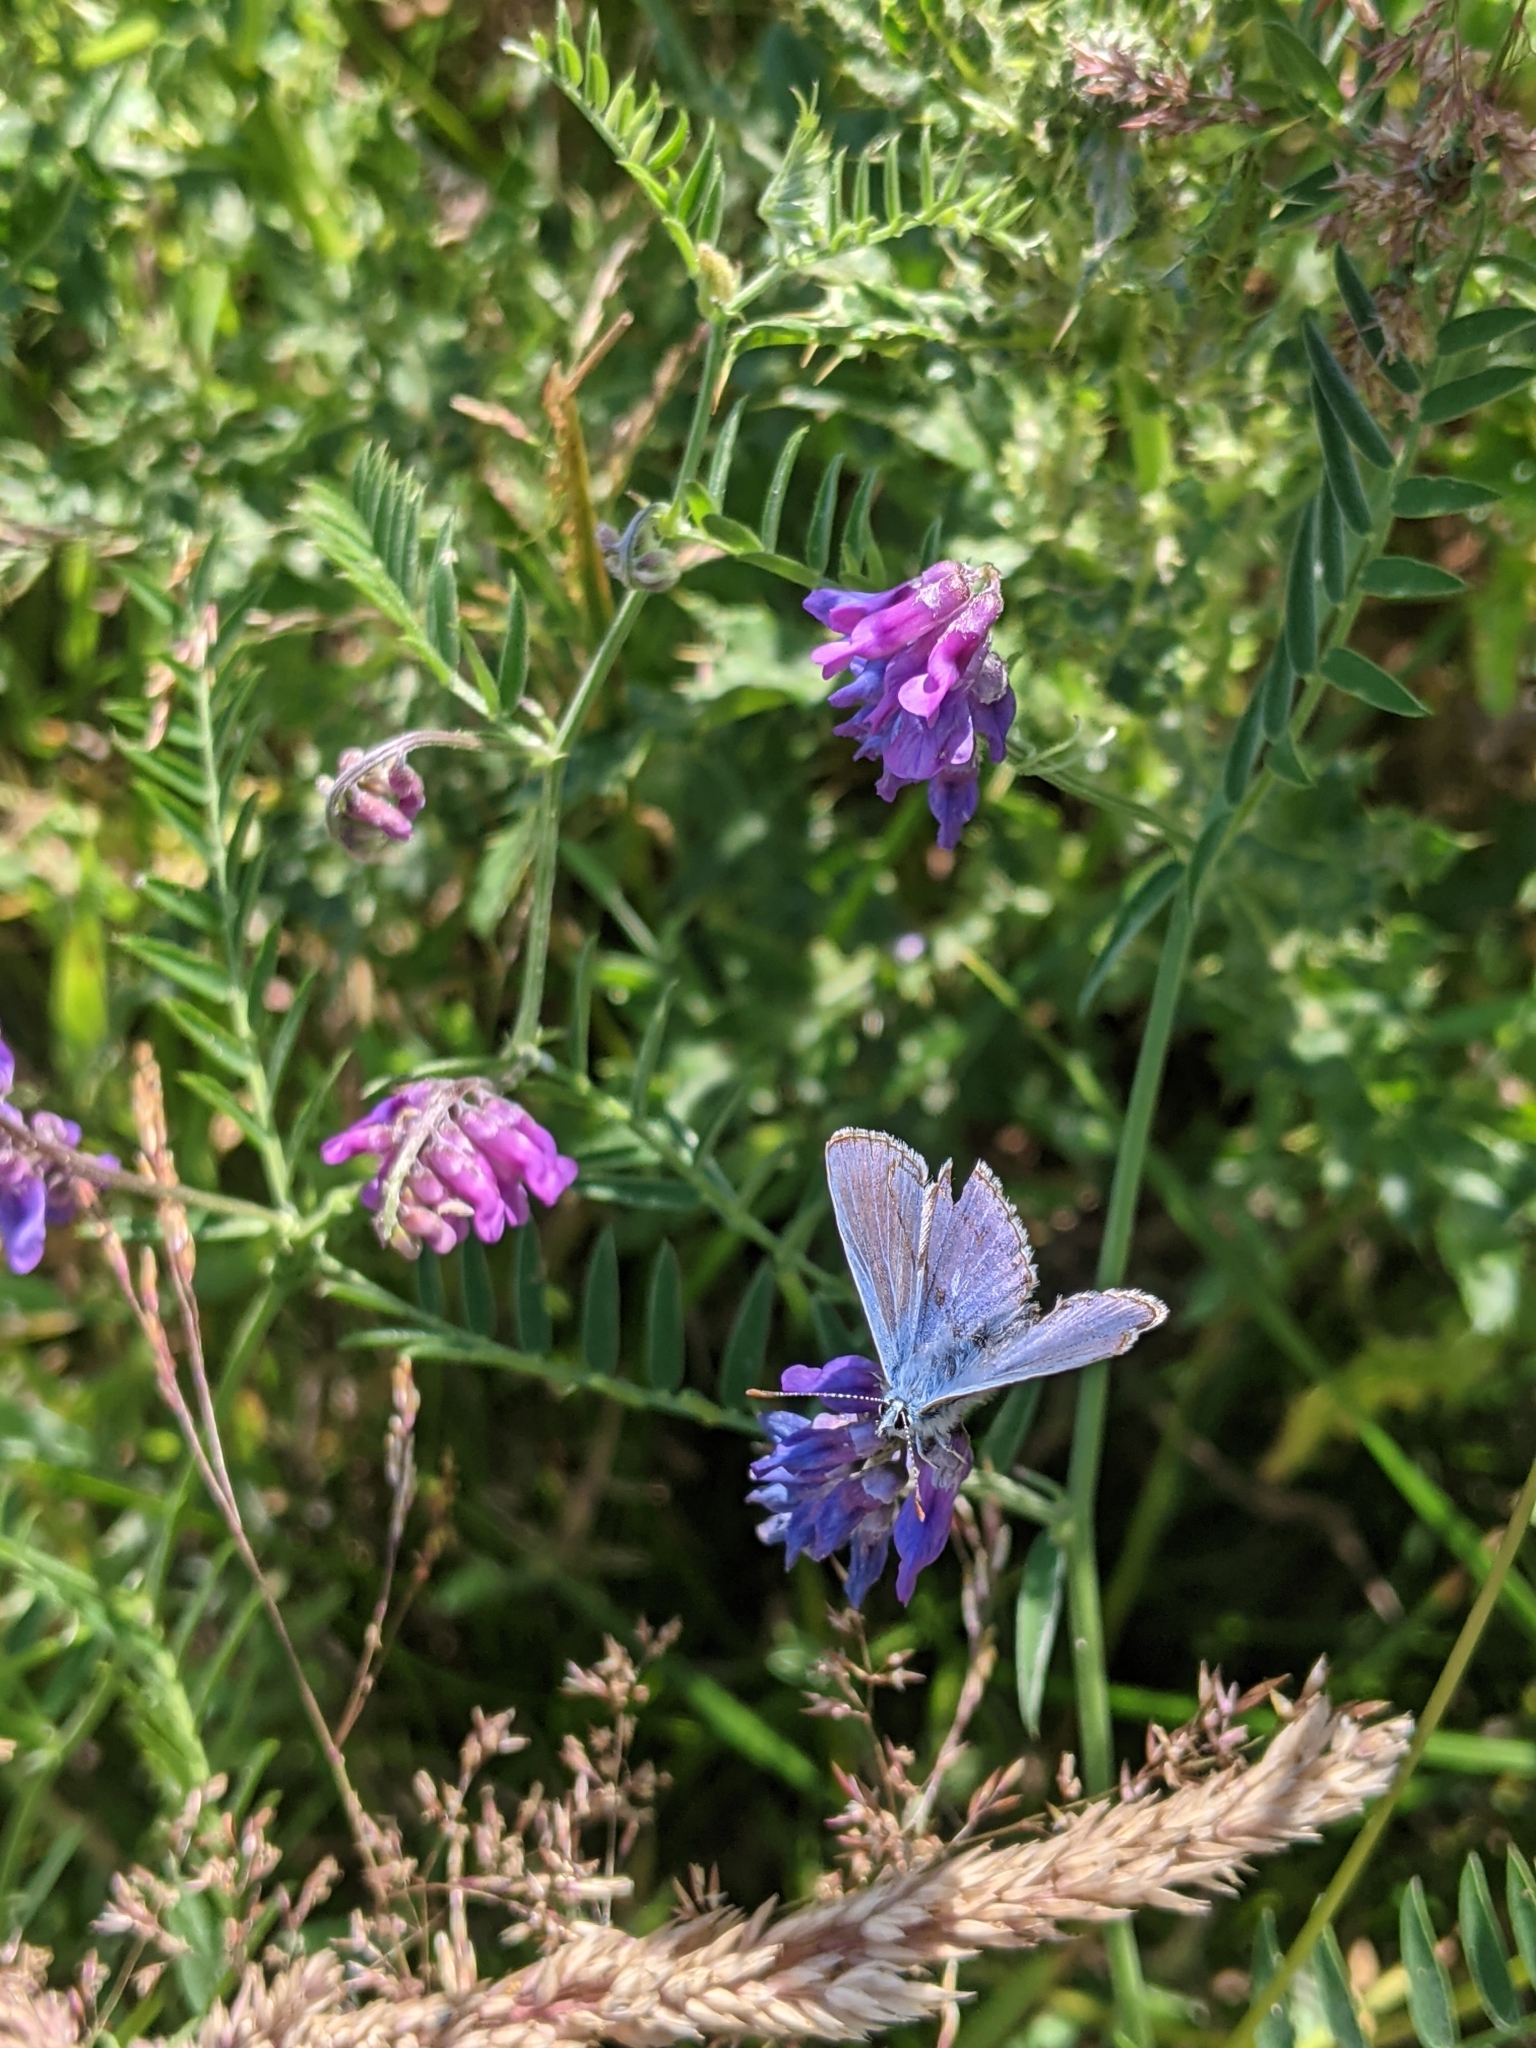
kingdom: Animalia
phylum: Arthropoda
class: Insecta
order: Lepidoptera
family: Lycaenidae
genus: Polyommatus
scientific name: Polyommatus icarus
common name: Common blue
